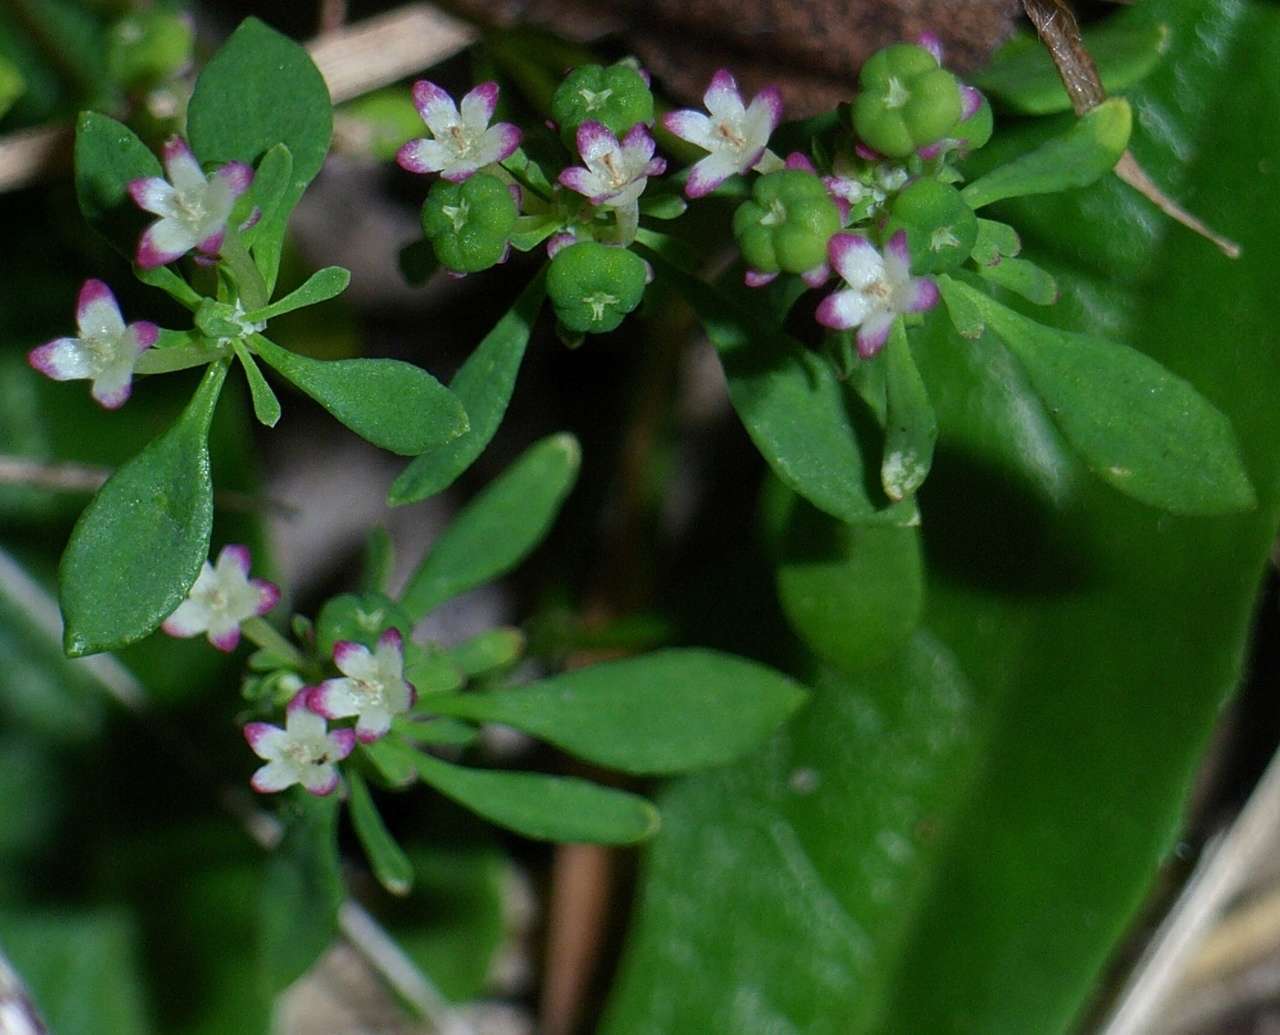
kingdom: Plantae
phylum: Tracheophyta
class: Magnoliopsida
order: Malpighiales
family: Phyllanthaceae
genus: Poranthera
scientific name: Poranthera microphylla
